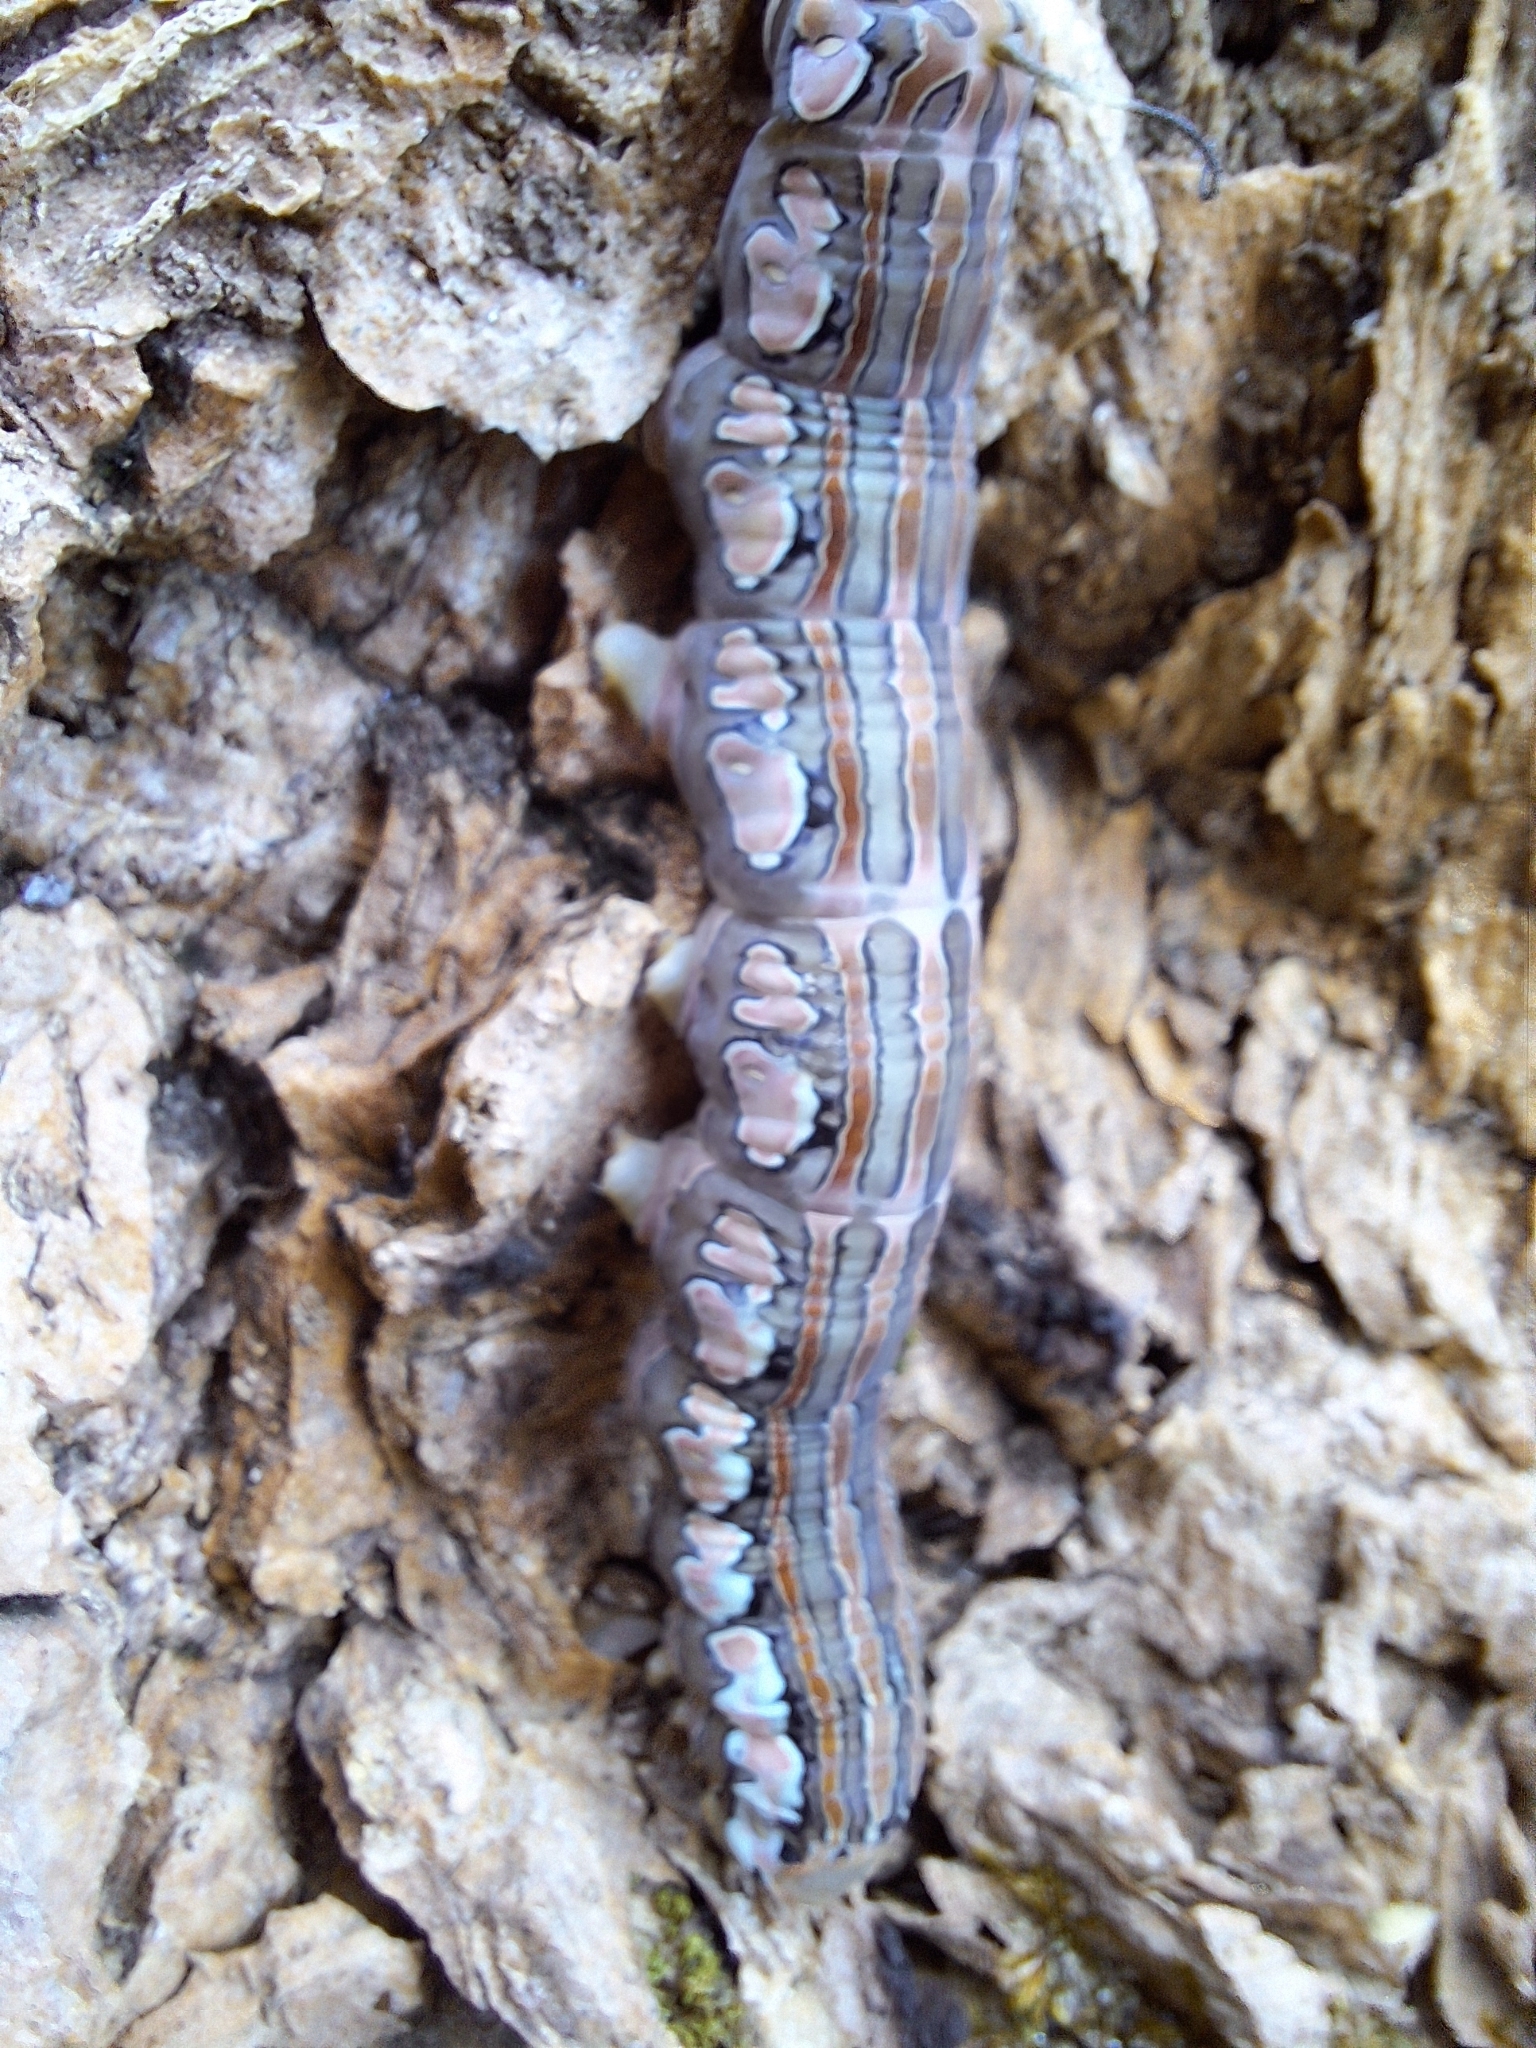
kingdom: Animalia
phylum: Arthropoda
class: Insecta
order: Lepidoptera
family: Sphingidae
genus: Isognathus
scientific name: Isognathus rimosa
